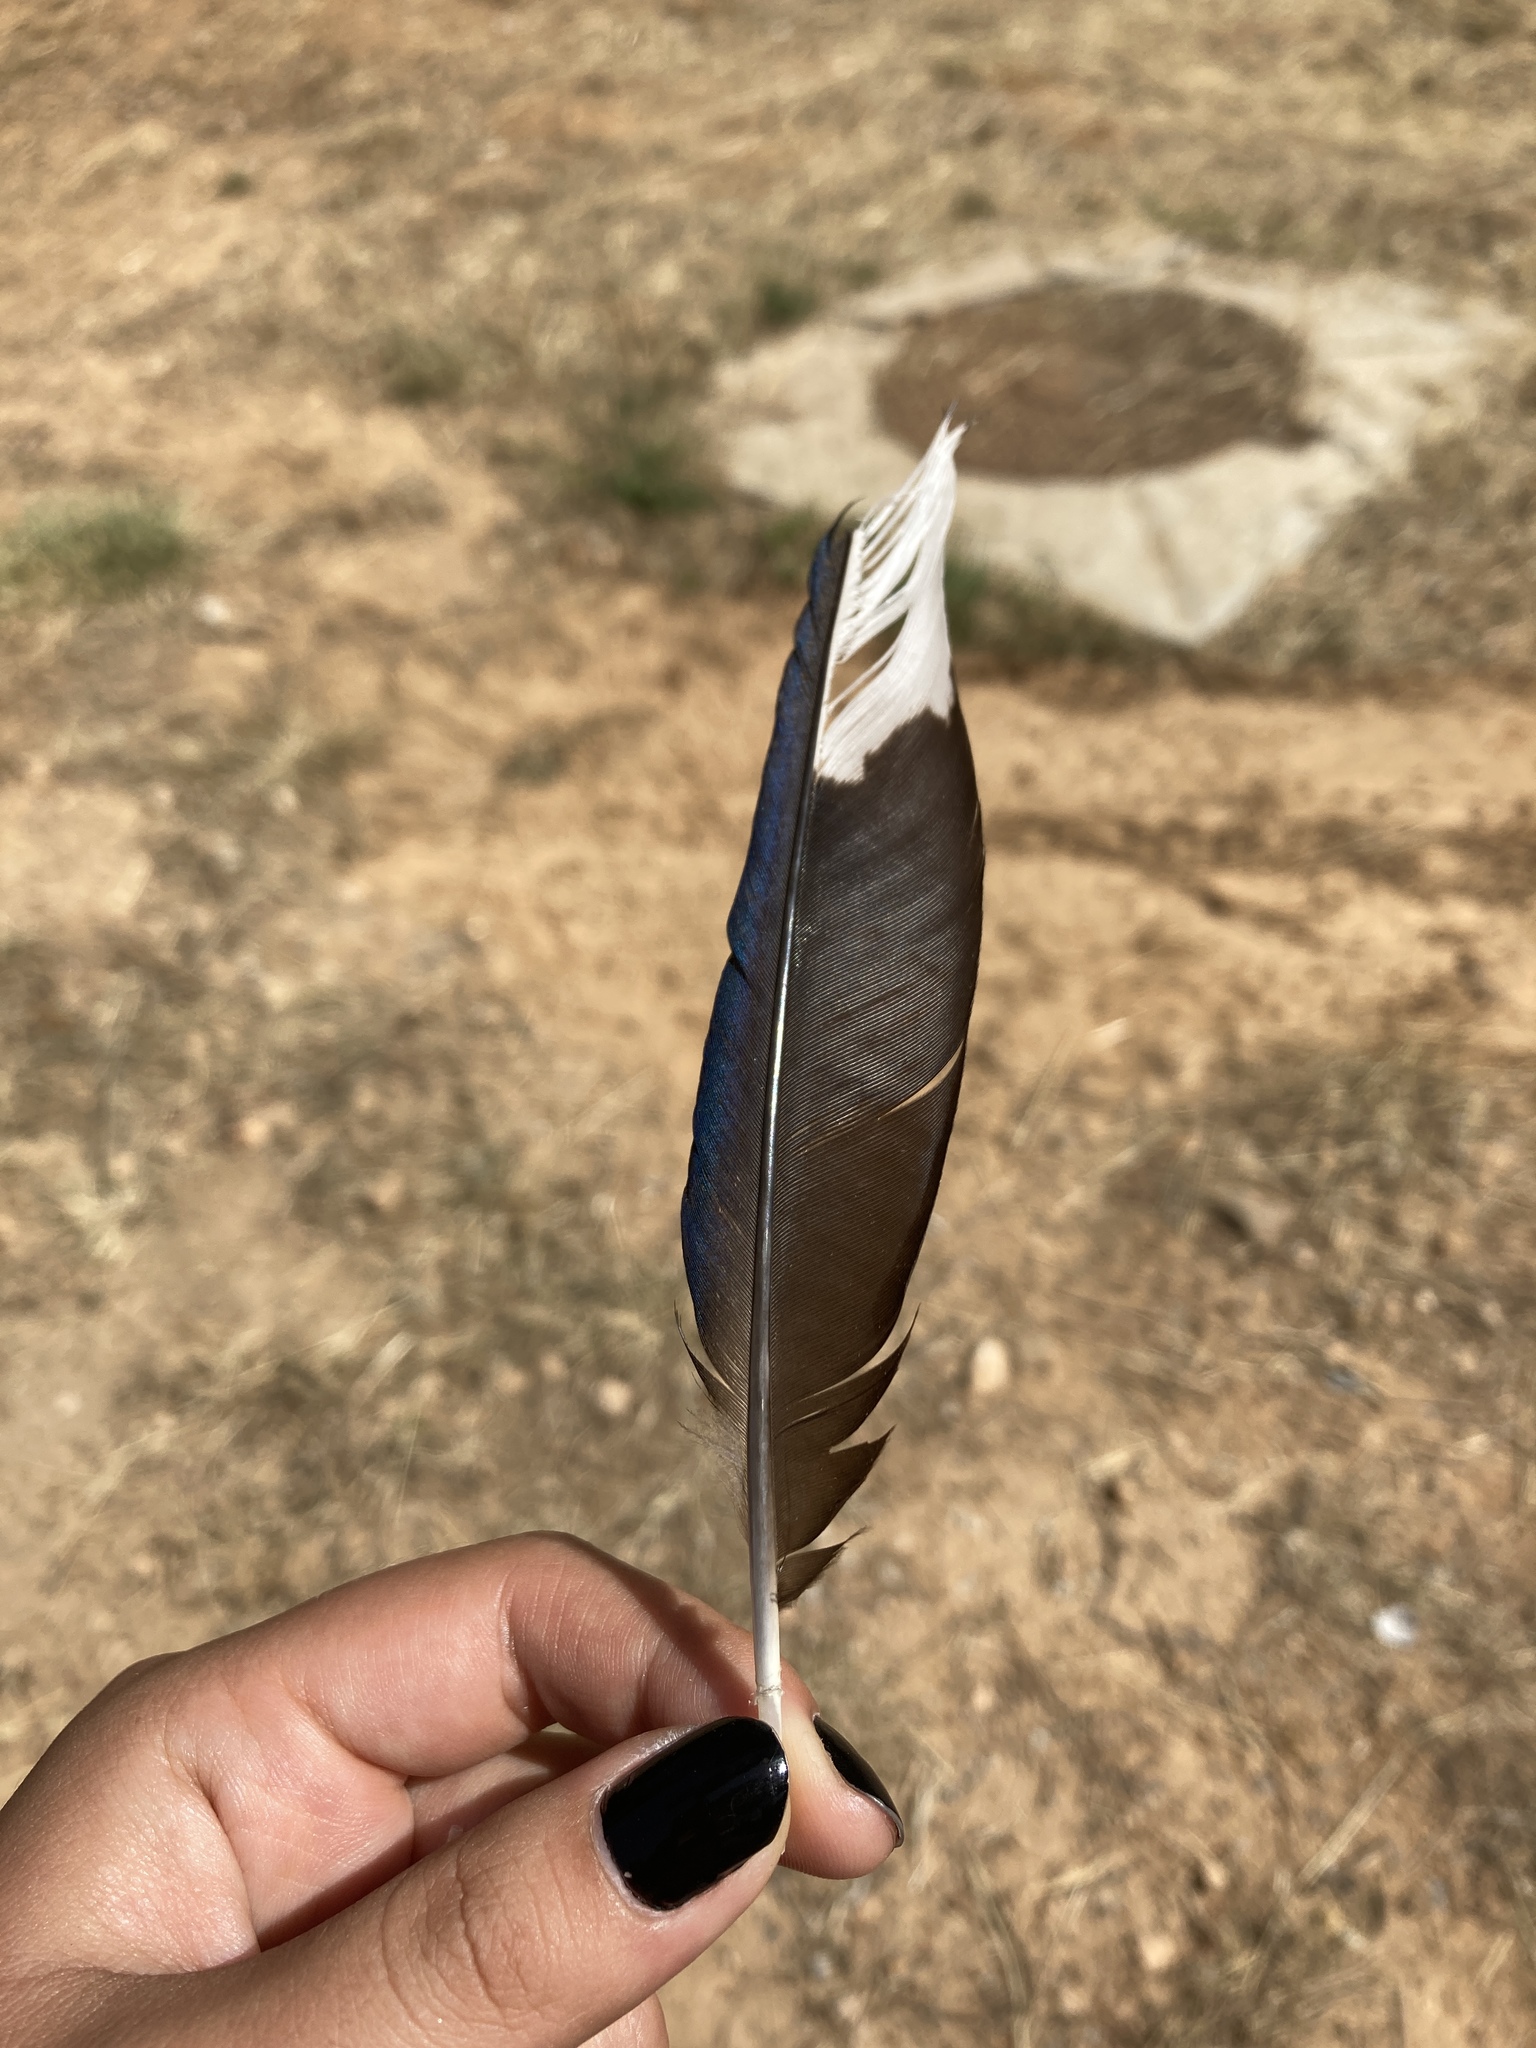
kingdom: Animalia
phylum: Chordata
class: Aves
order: Passeriformes
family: Corvidae
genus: Pica
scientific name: Pica pica
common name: Eurasian magpie
